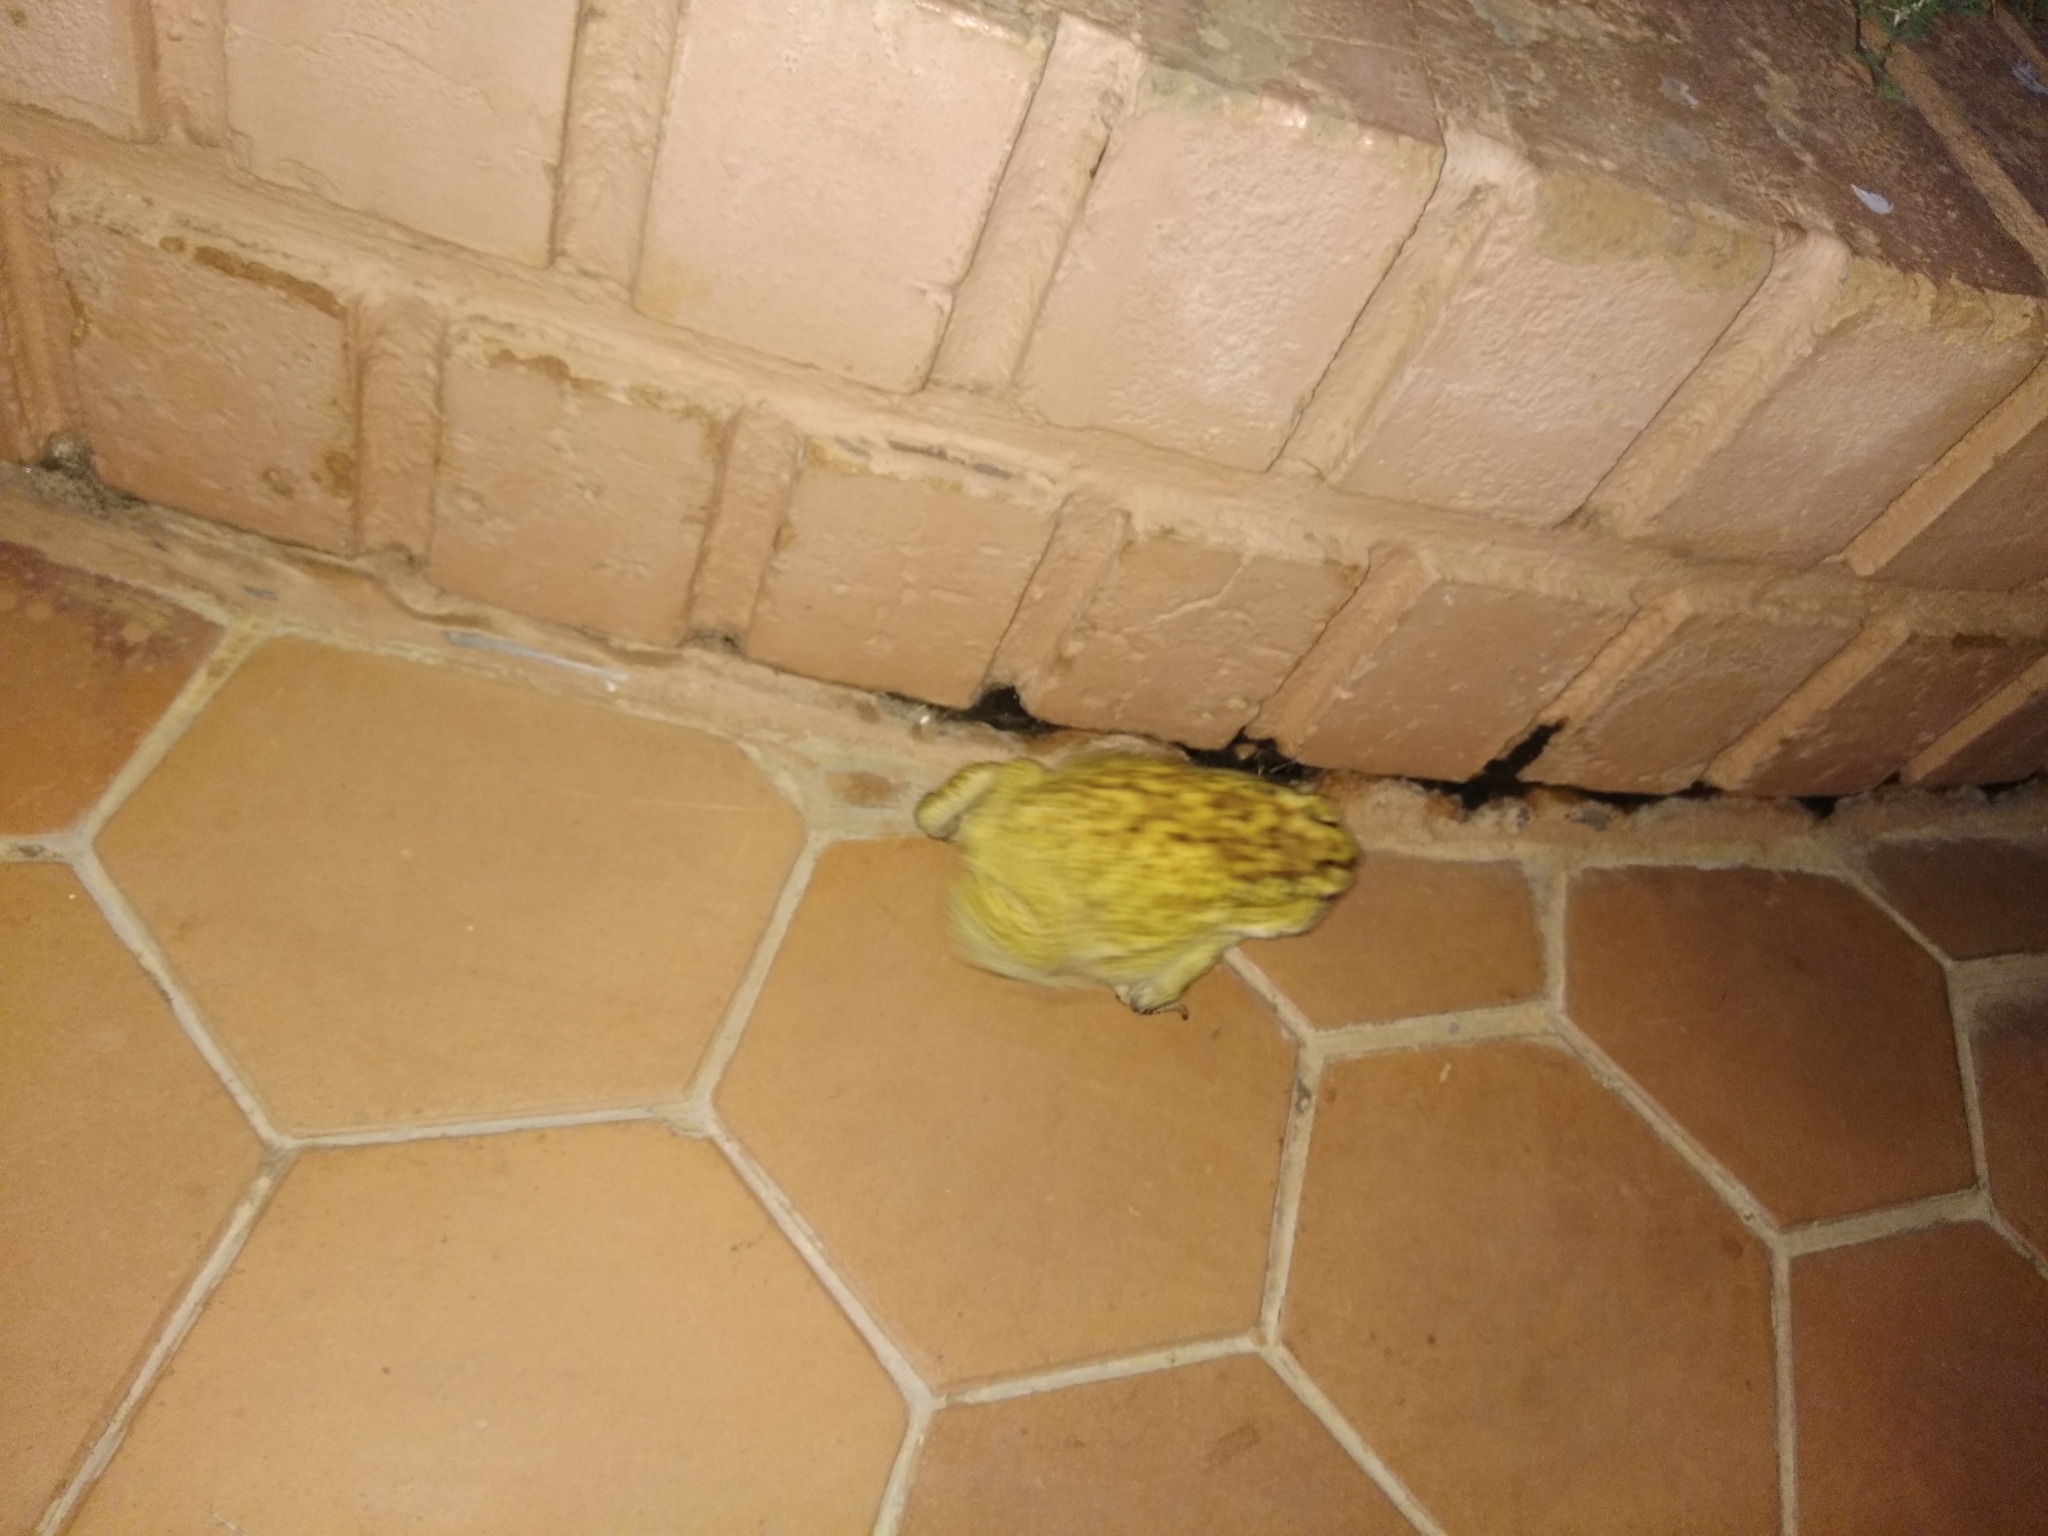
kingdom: Animalia
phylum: Chordata
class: Amphibia
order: Anura
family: Bufonidae
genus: Duttaphrynus
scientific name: Duttaphrynus melanostictus
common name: Common sunda toad
